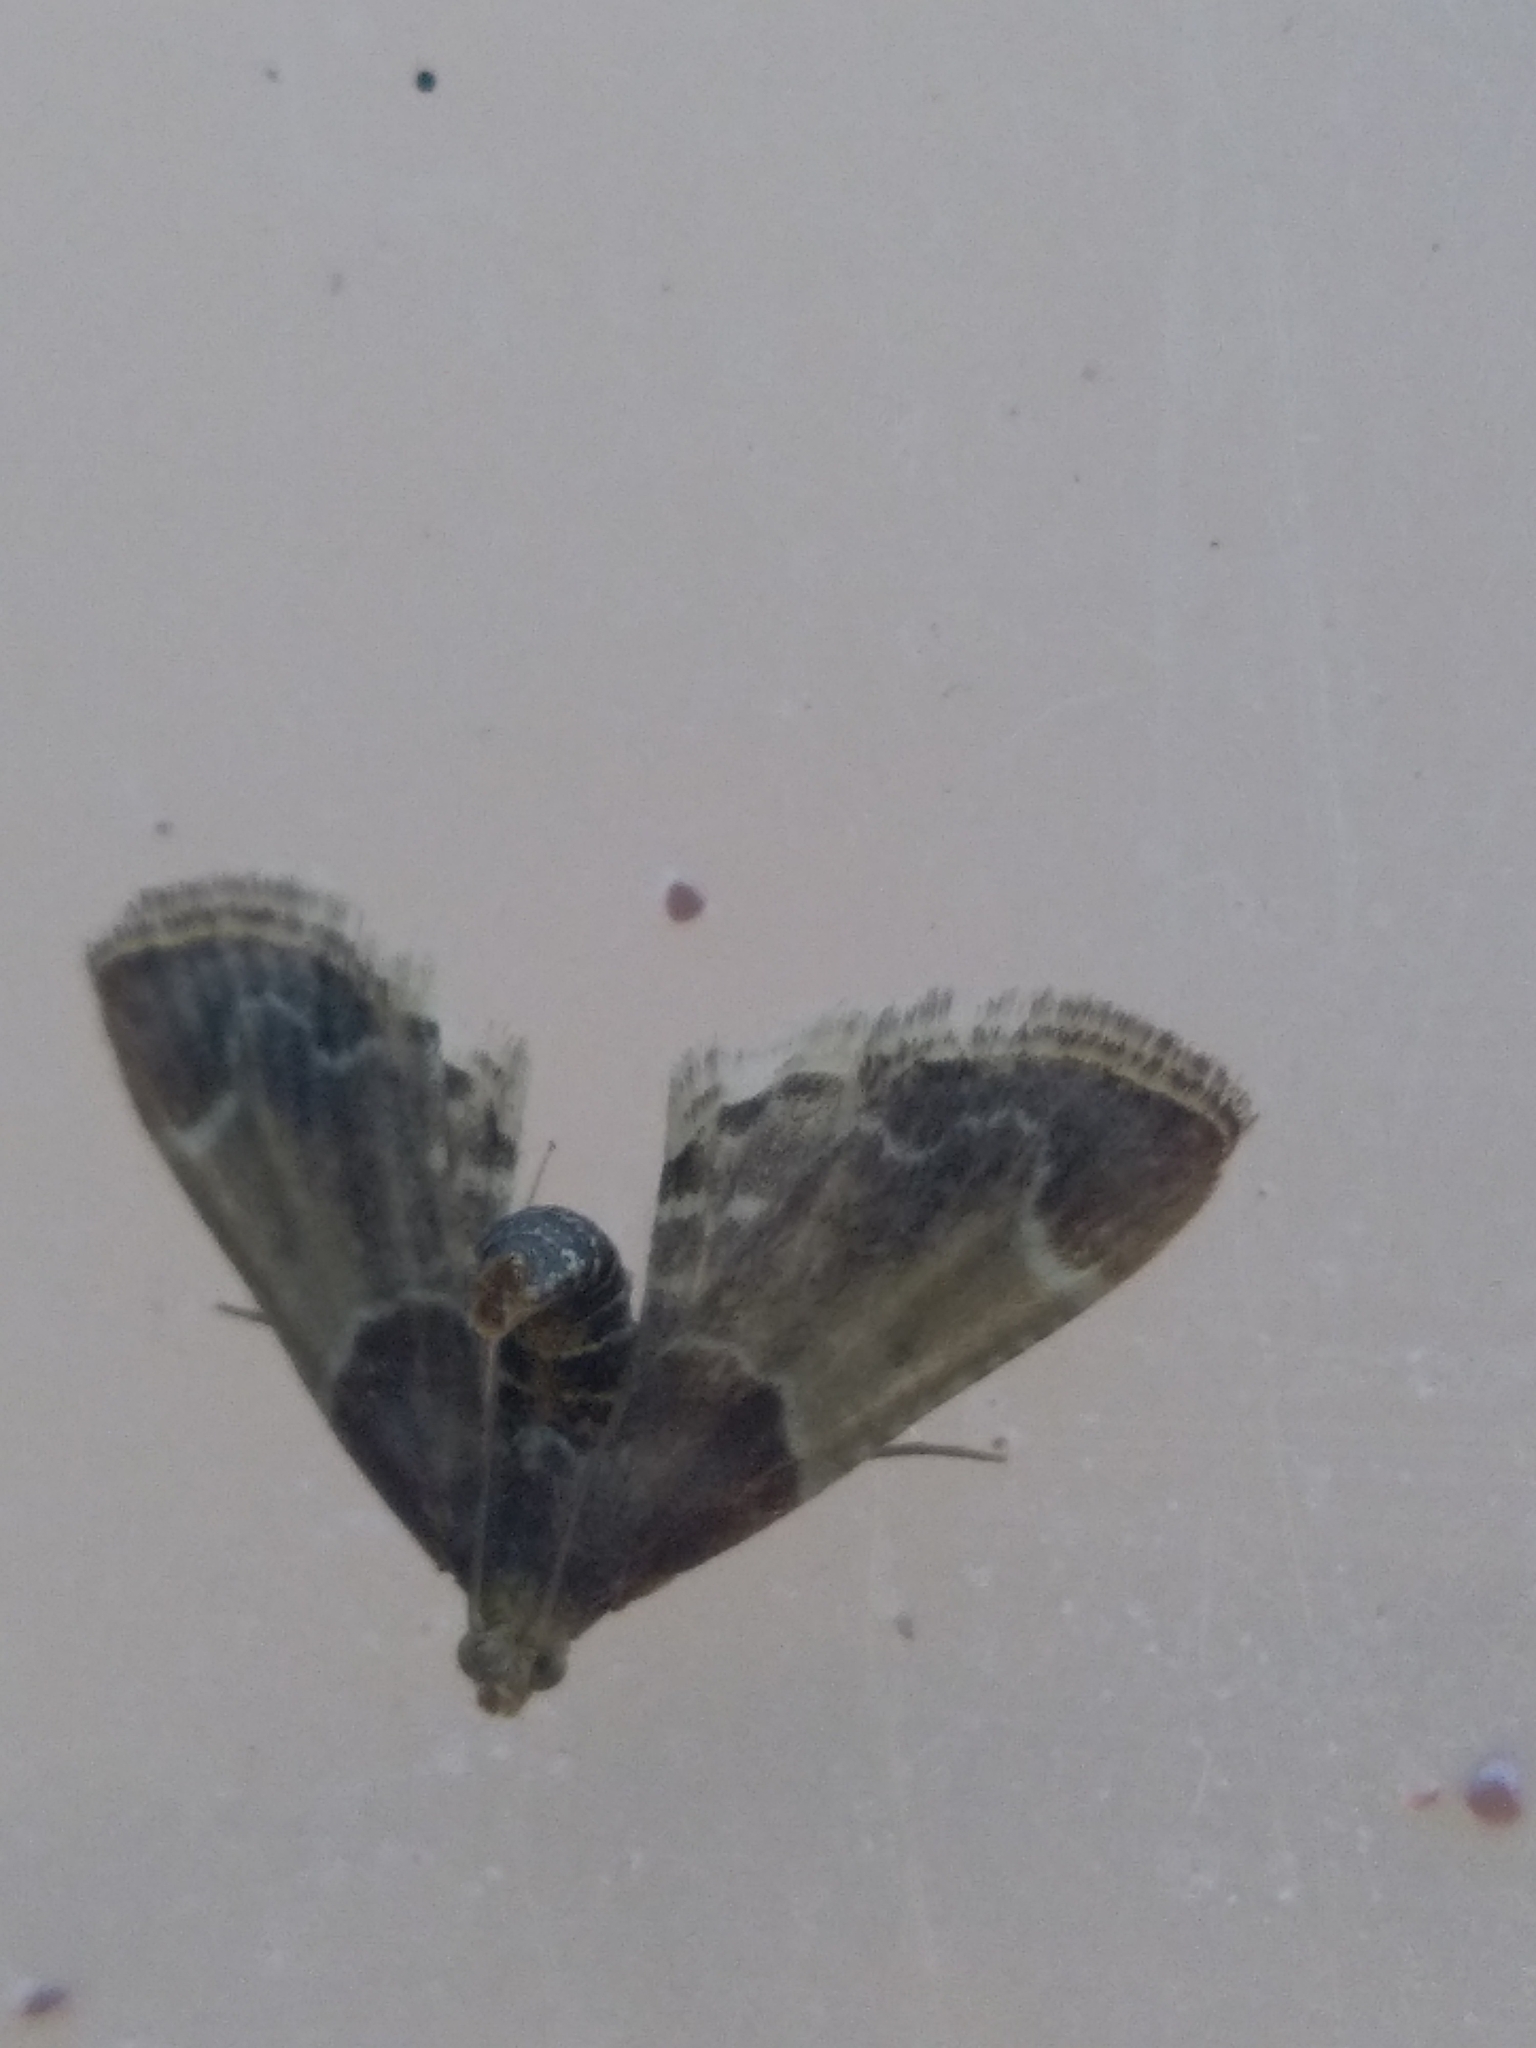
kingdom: Animalia
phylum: Arthropoda
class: Insecta
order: Lepidoptera
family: Pyralidae
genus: Pyralis
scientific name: Pyralis farinalis
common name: Meal moth
